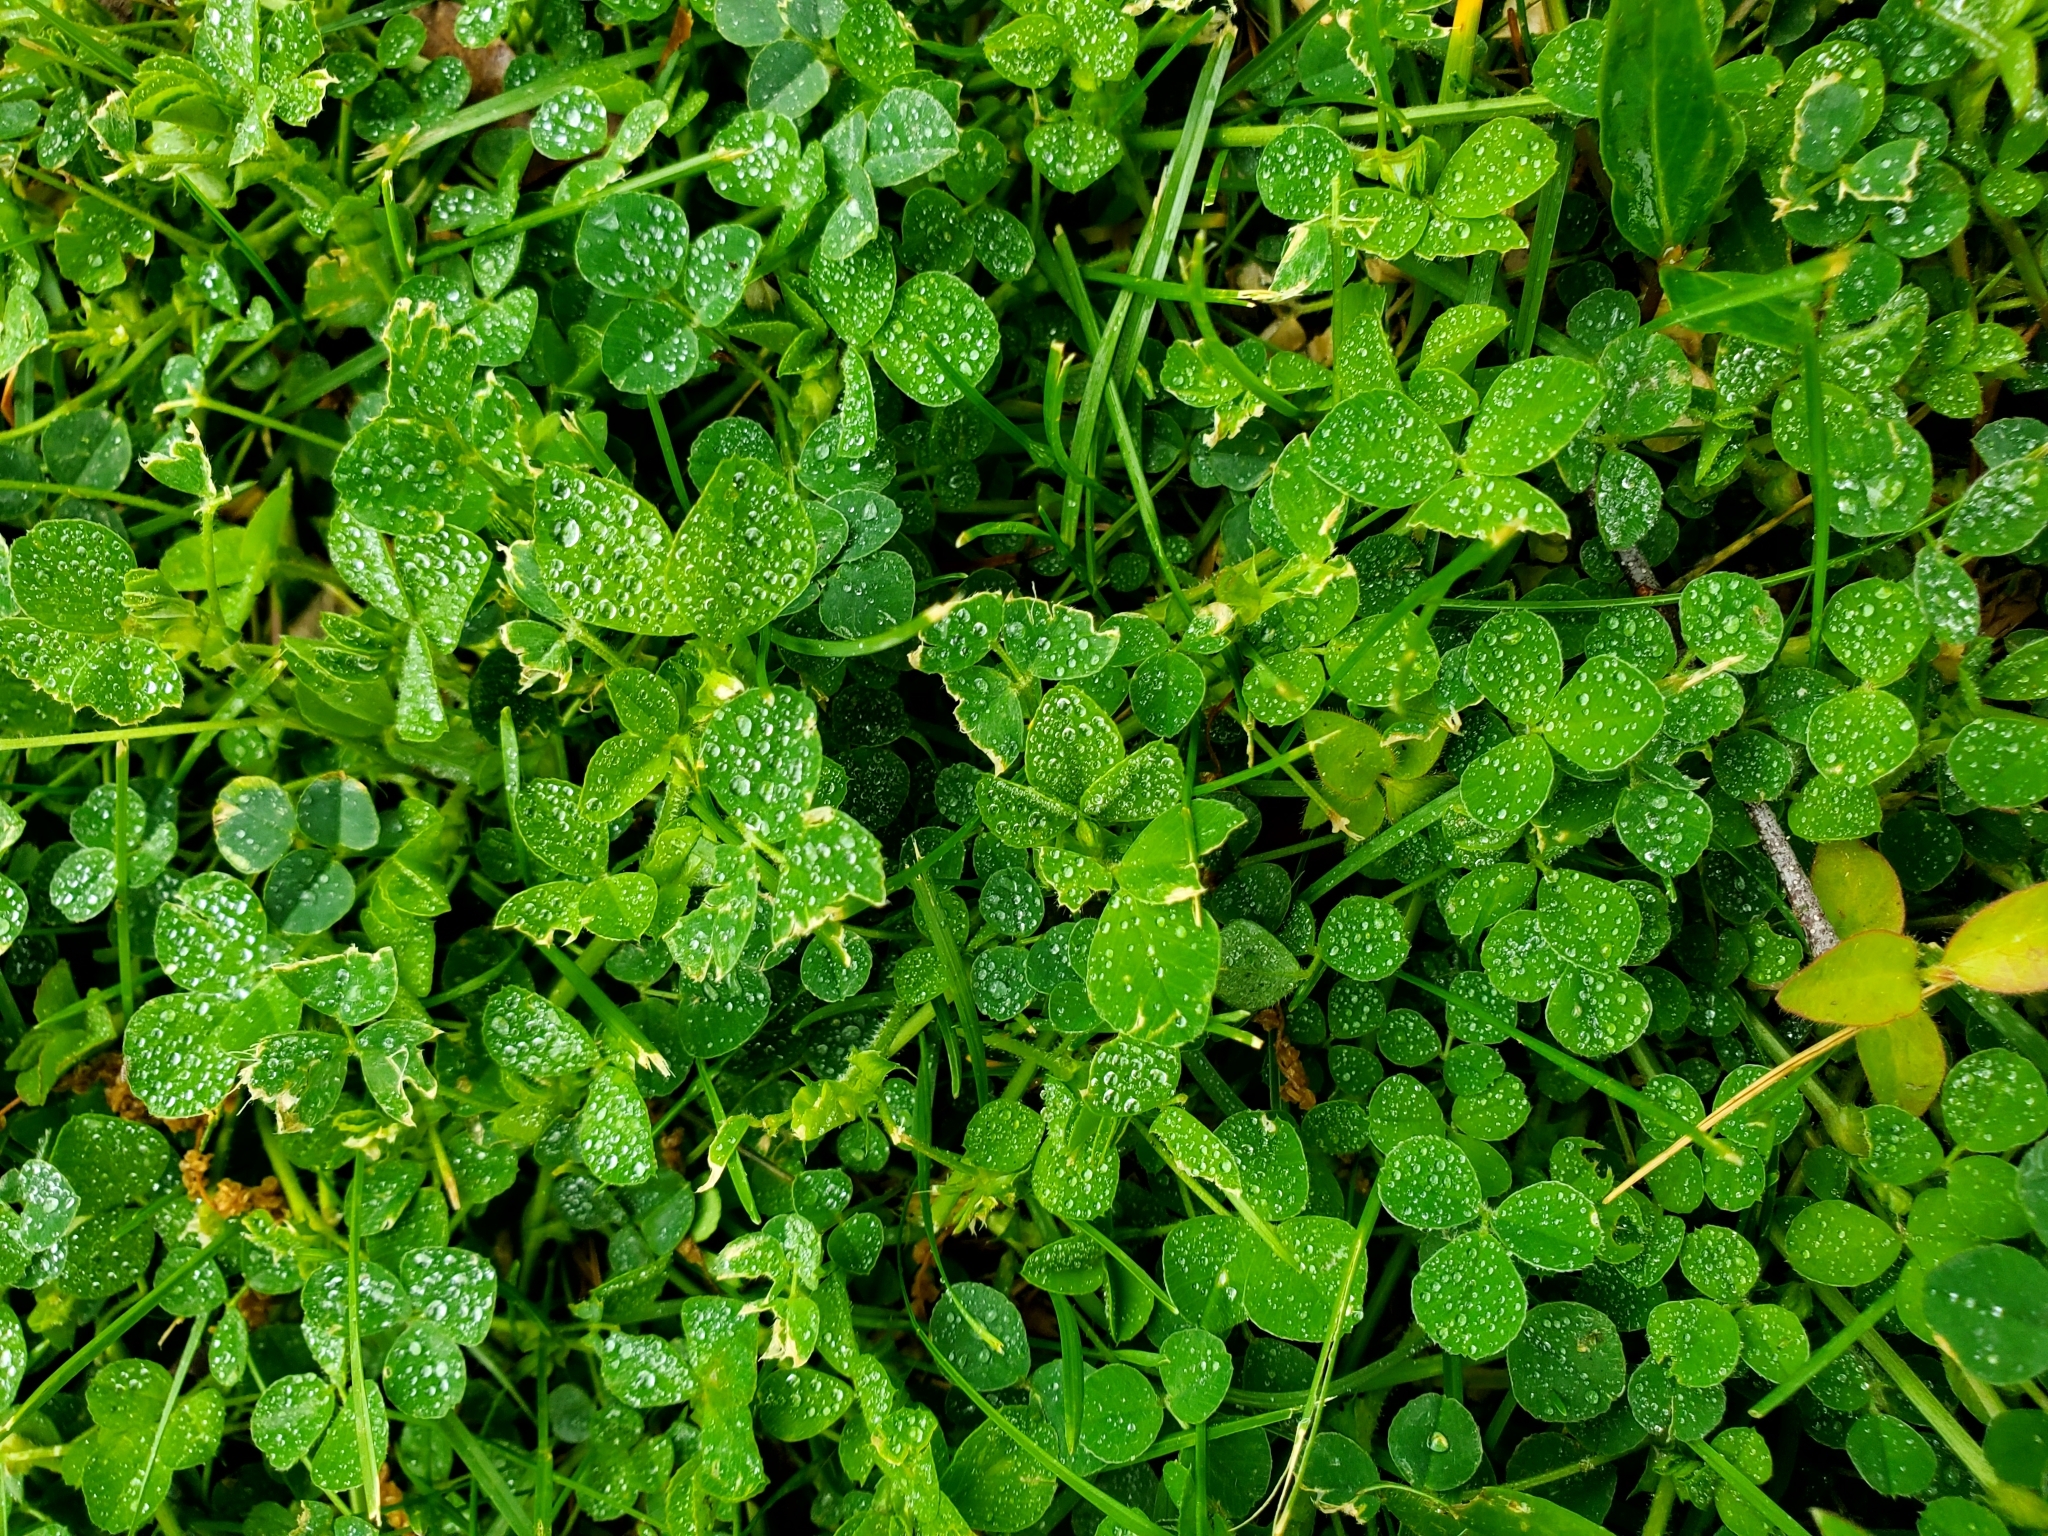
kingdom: Plantae
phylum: Tracheophyta
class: Magnoliopsida
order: Fabales
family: Fabaceae
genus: Medicago
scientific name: Medicago lupulina
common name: Black medick
